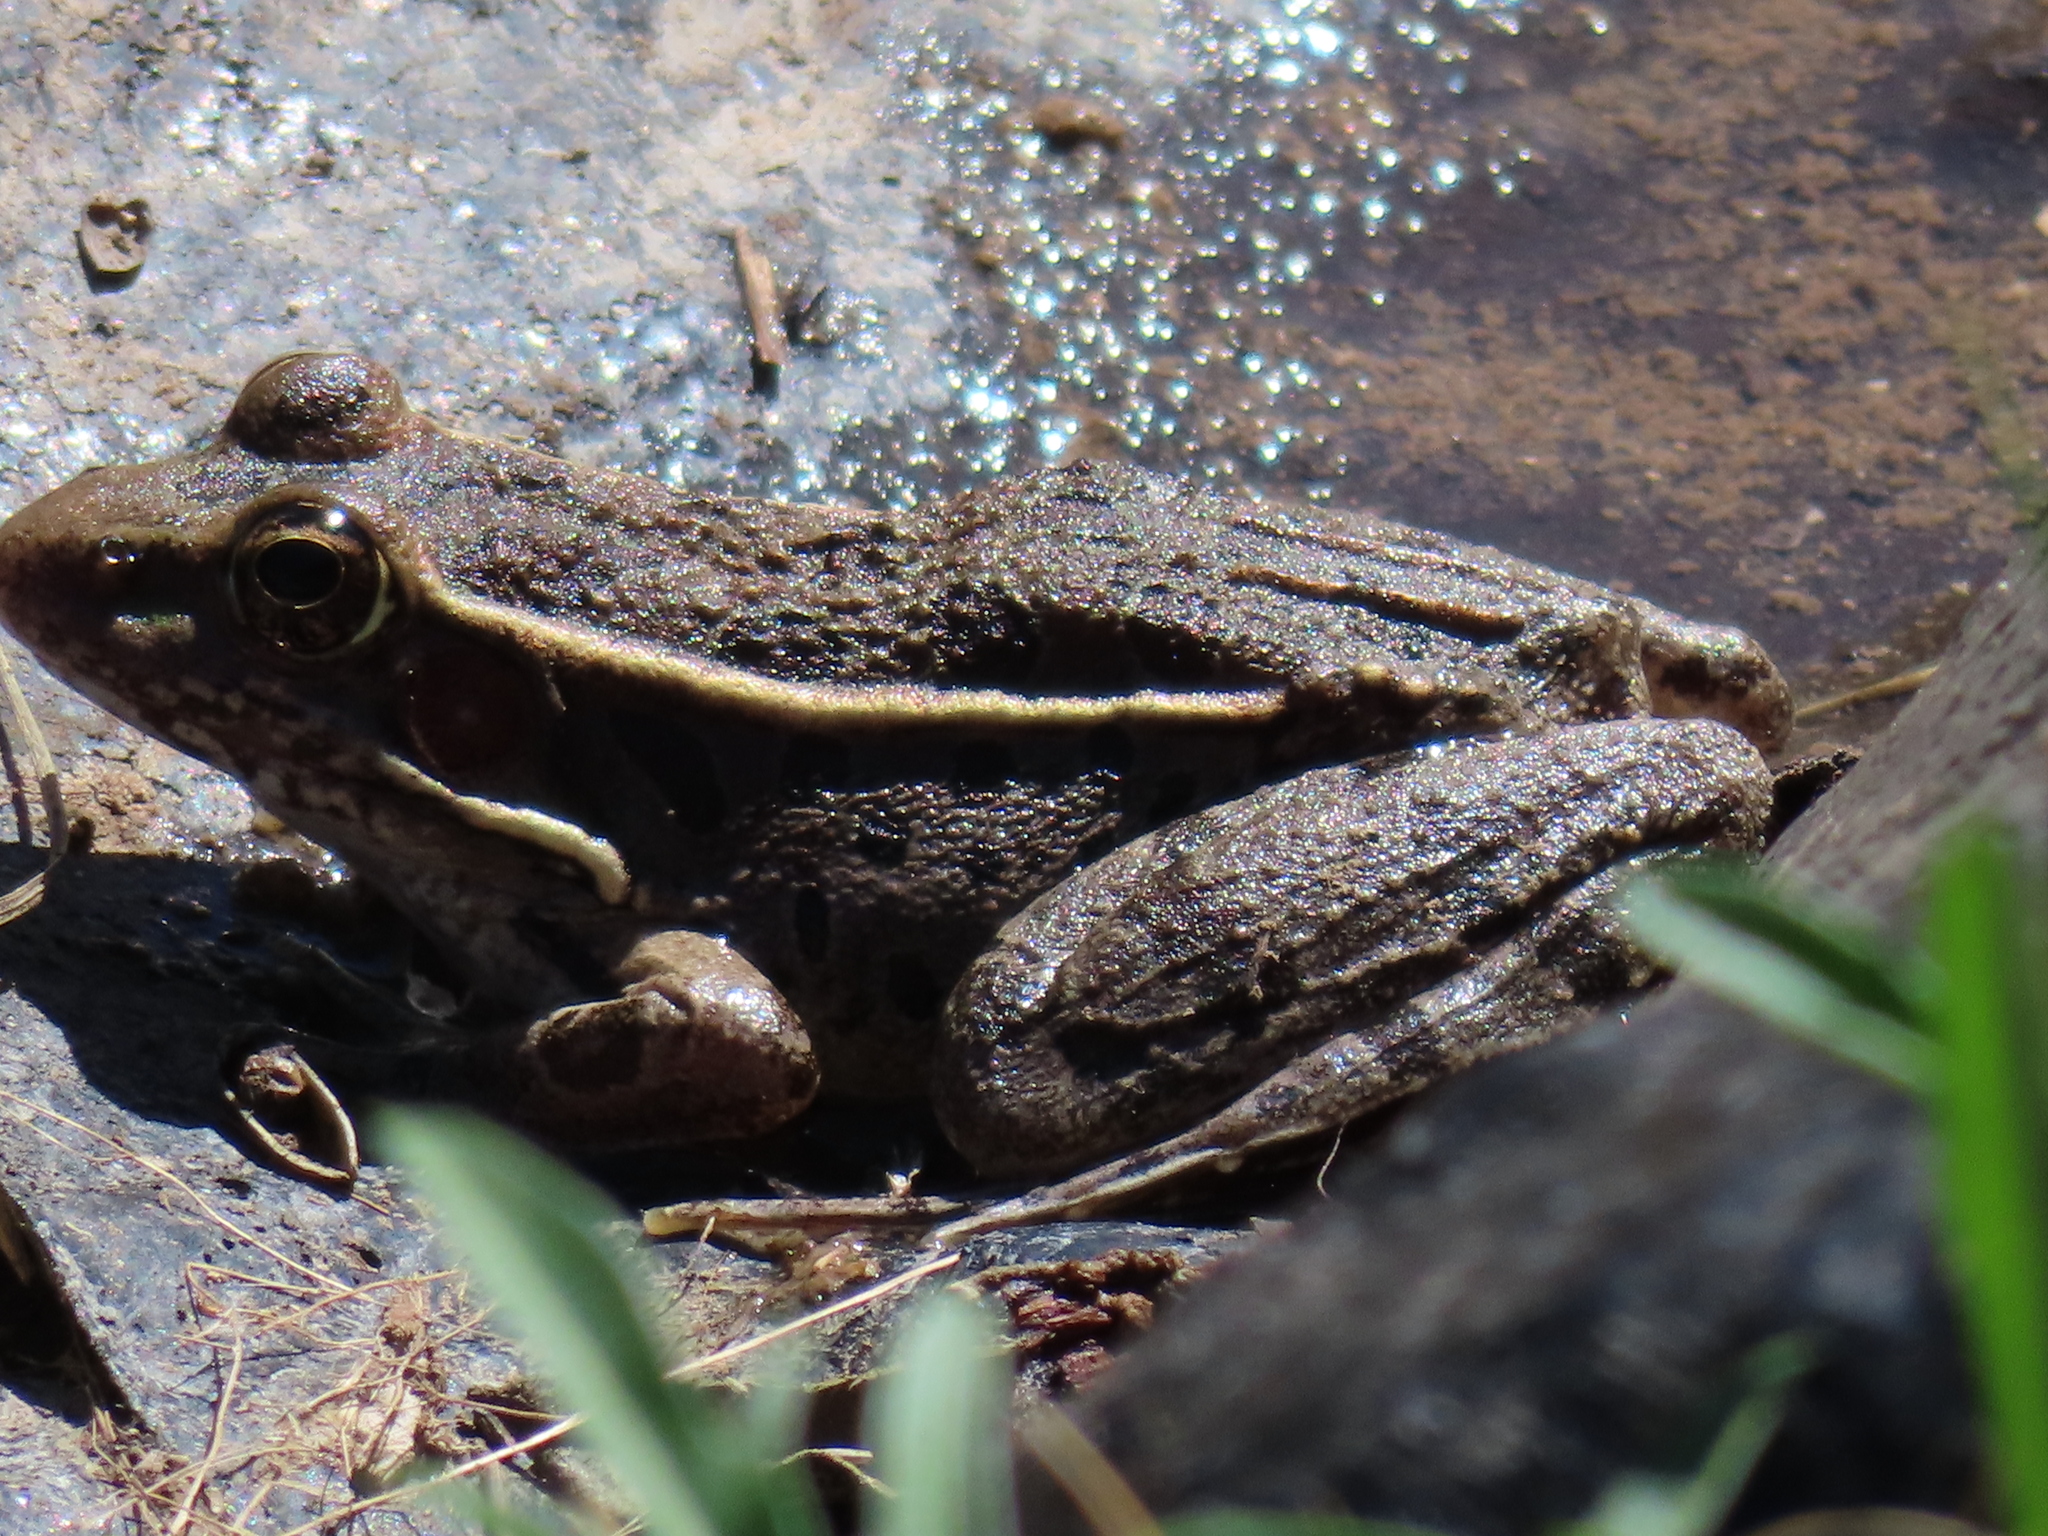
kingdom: Animalia
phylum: Chordata
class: Amphibia
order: Anura
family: Ranidae
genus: Lithobates
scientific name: Lithobates berlandieri
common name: Rio grande leopard frog
